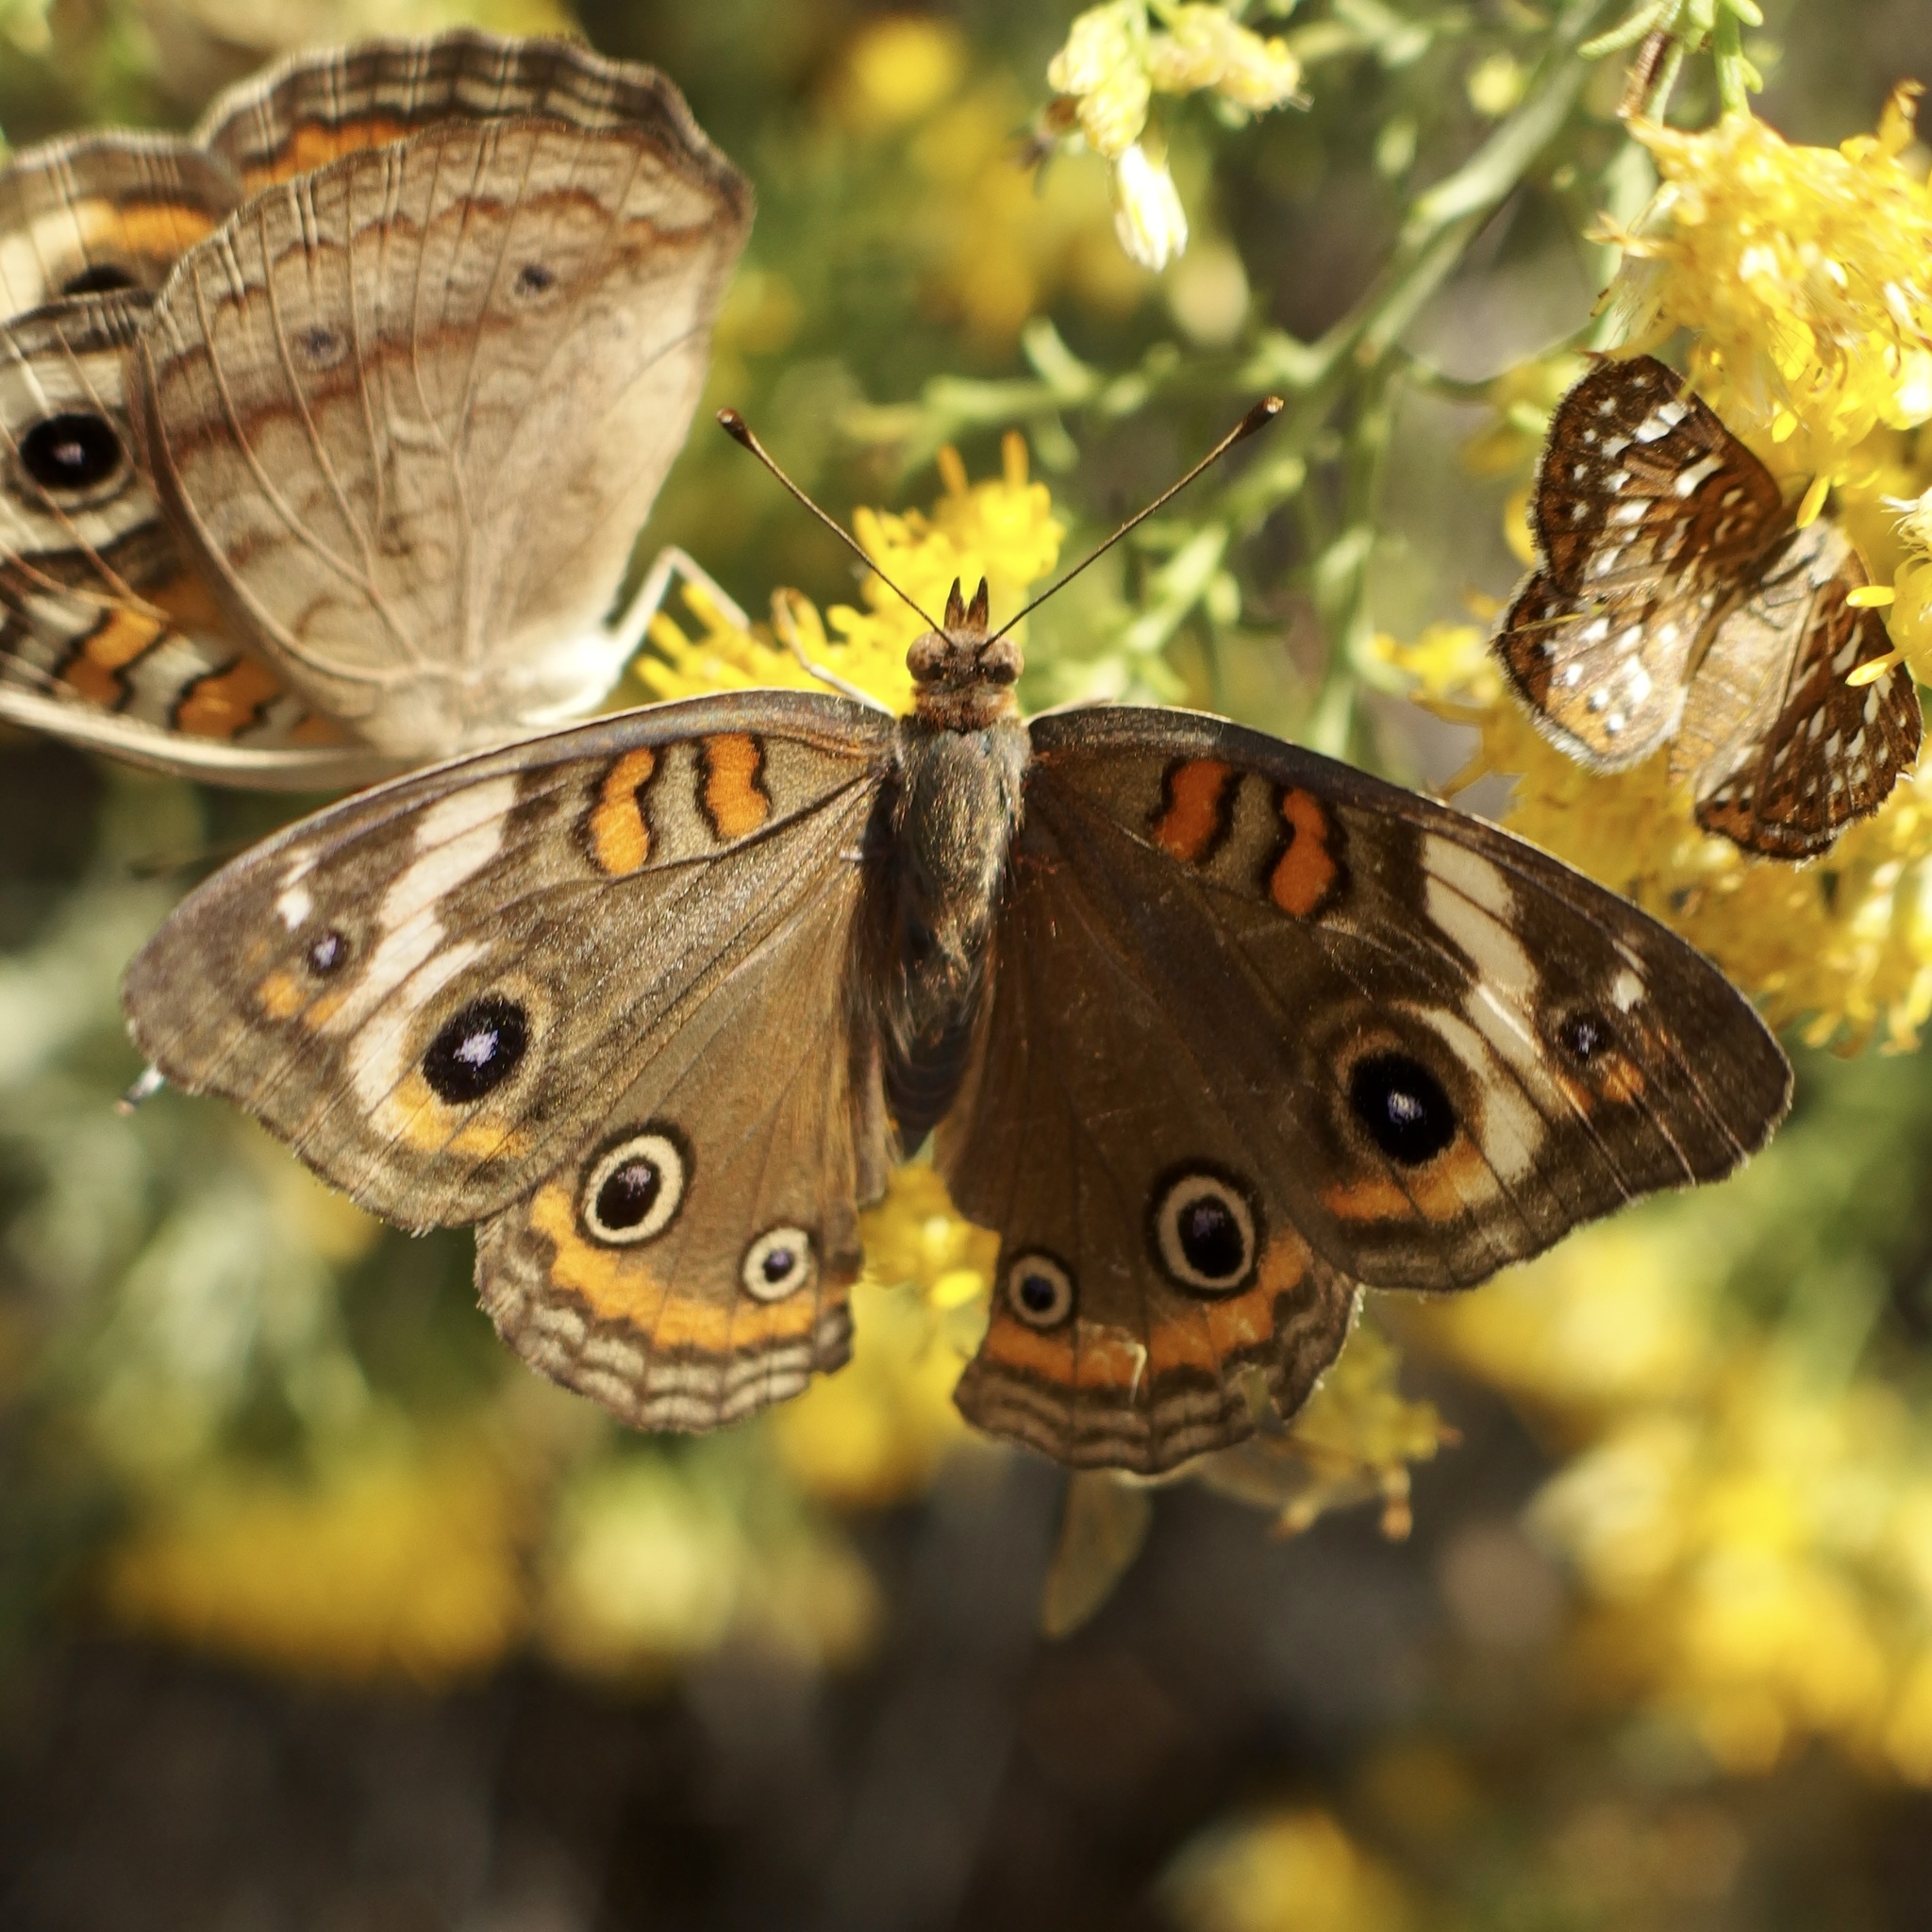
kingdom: Animalia
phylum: Arthropoda
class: Insecta
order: Lepidoptera
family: Nymphalidae
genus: Junonia
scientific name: Junonia pacoma
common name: Pacific mangrove buckeye
